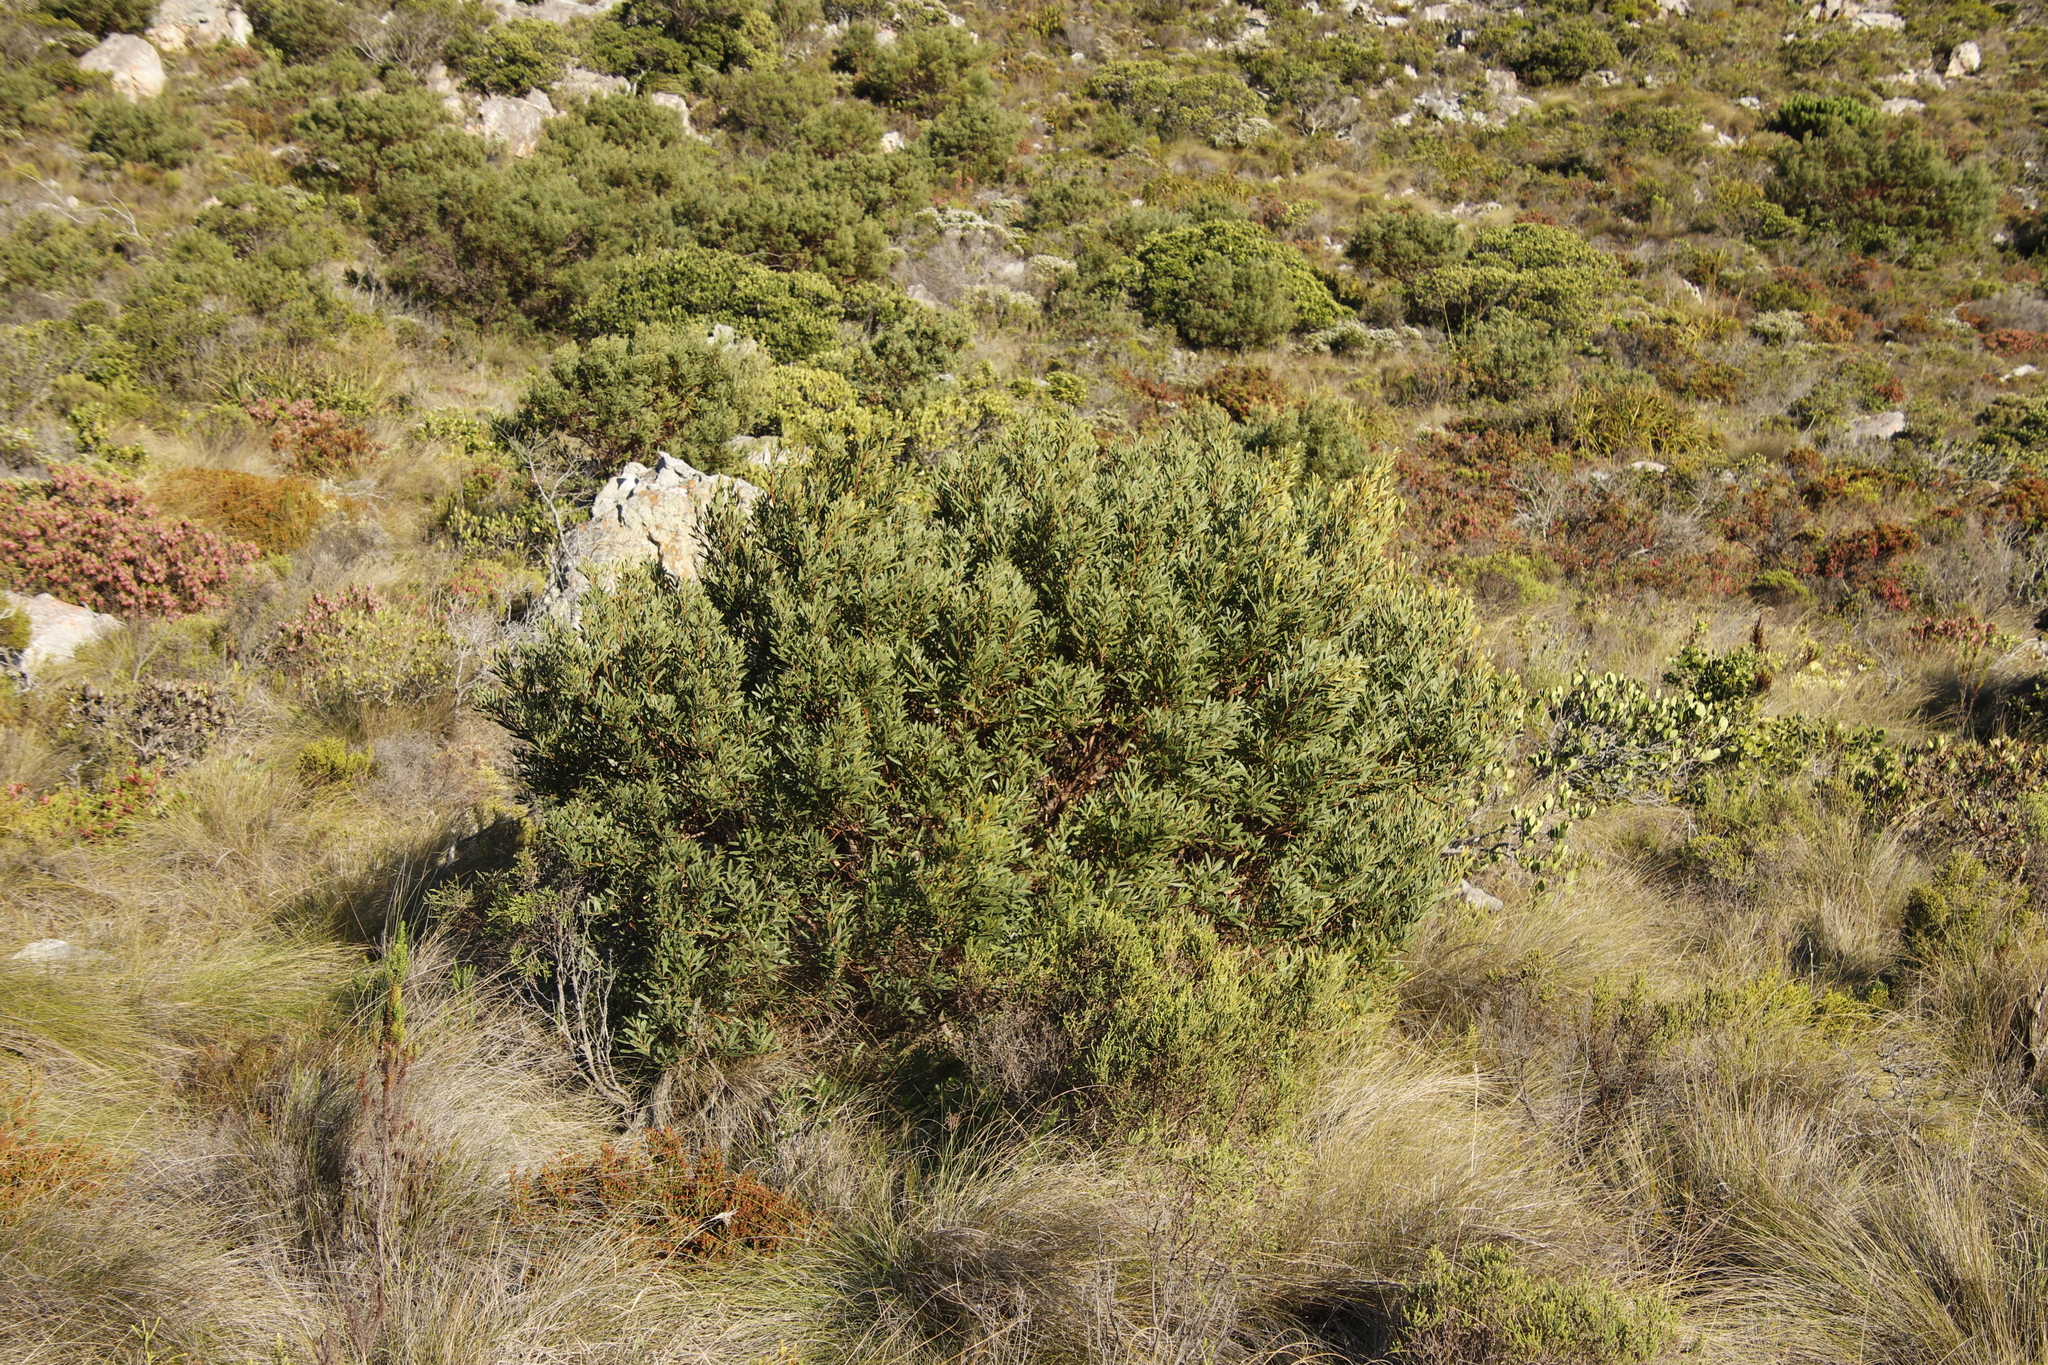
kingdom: Plantae
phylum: Tracheophyta
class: Magnoliopsida
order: Fabales
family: Fabaceae
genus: Acacia
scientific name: Acacia cyclops
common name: Coastal wattle
